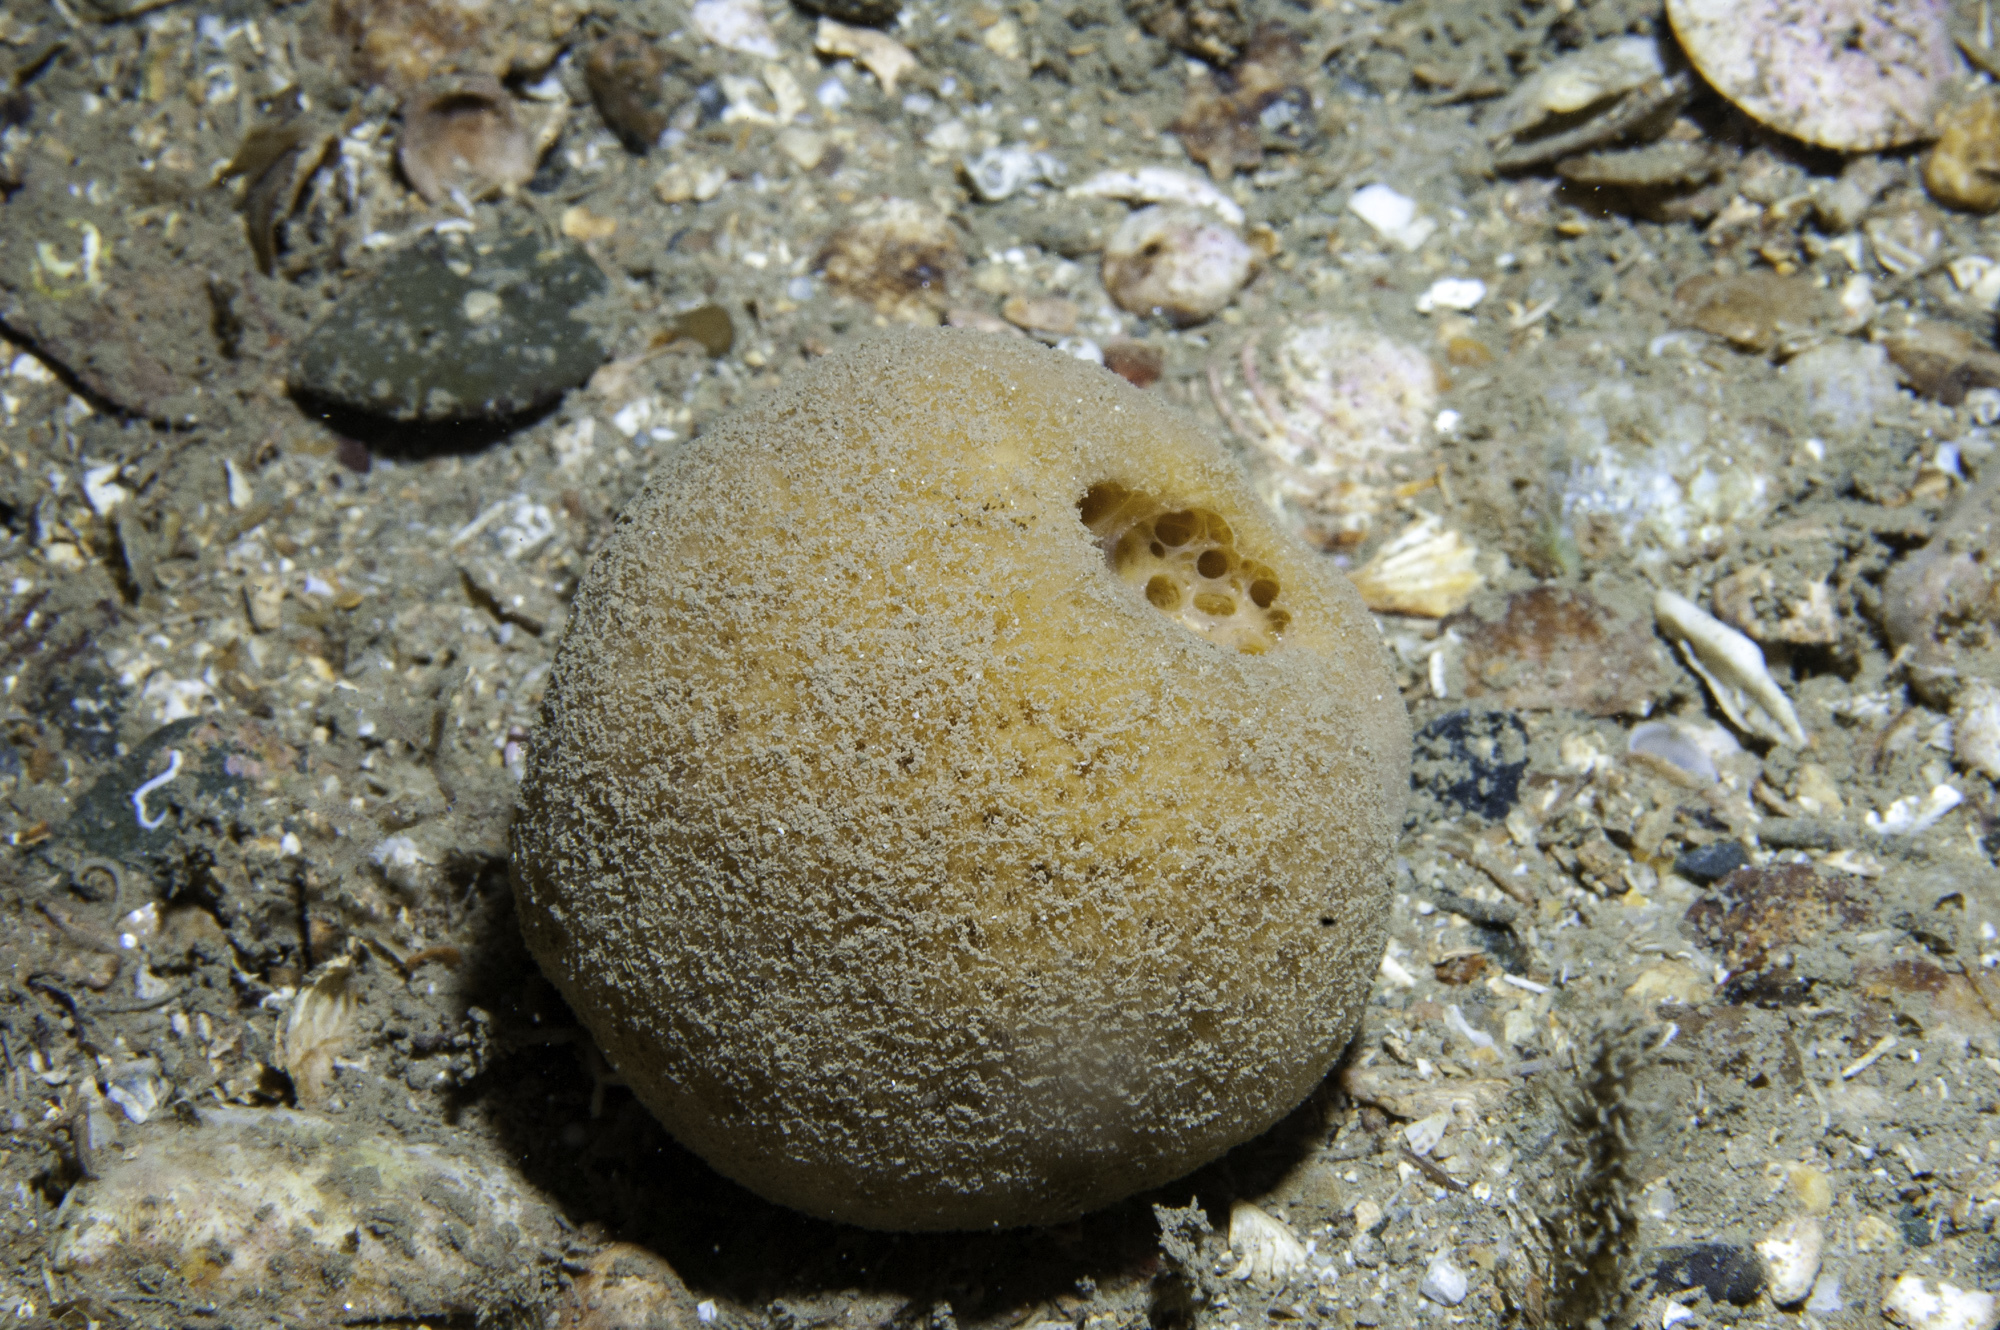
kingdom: Animalia
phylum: Porifera
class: Demospongiae
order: Suberitida
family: Suberitidae
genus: Suberites
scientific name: Suberites carnosus
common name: Fleshy horny sponge
